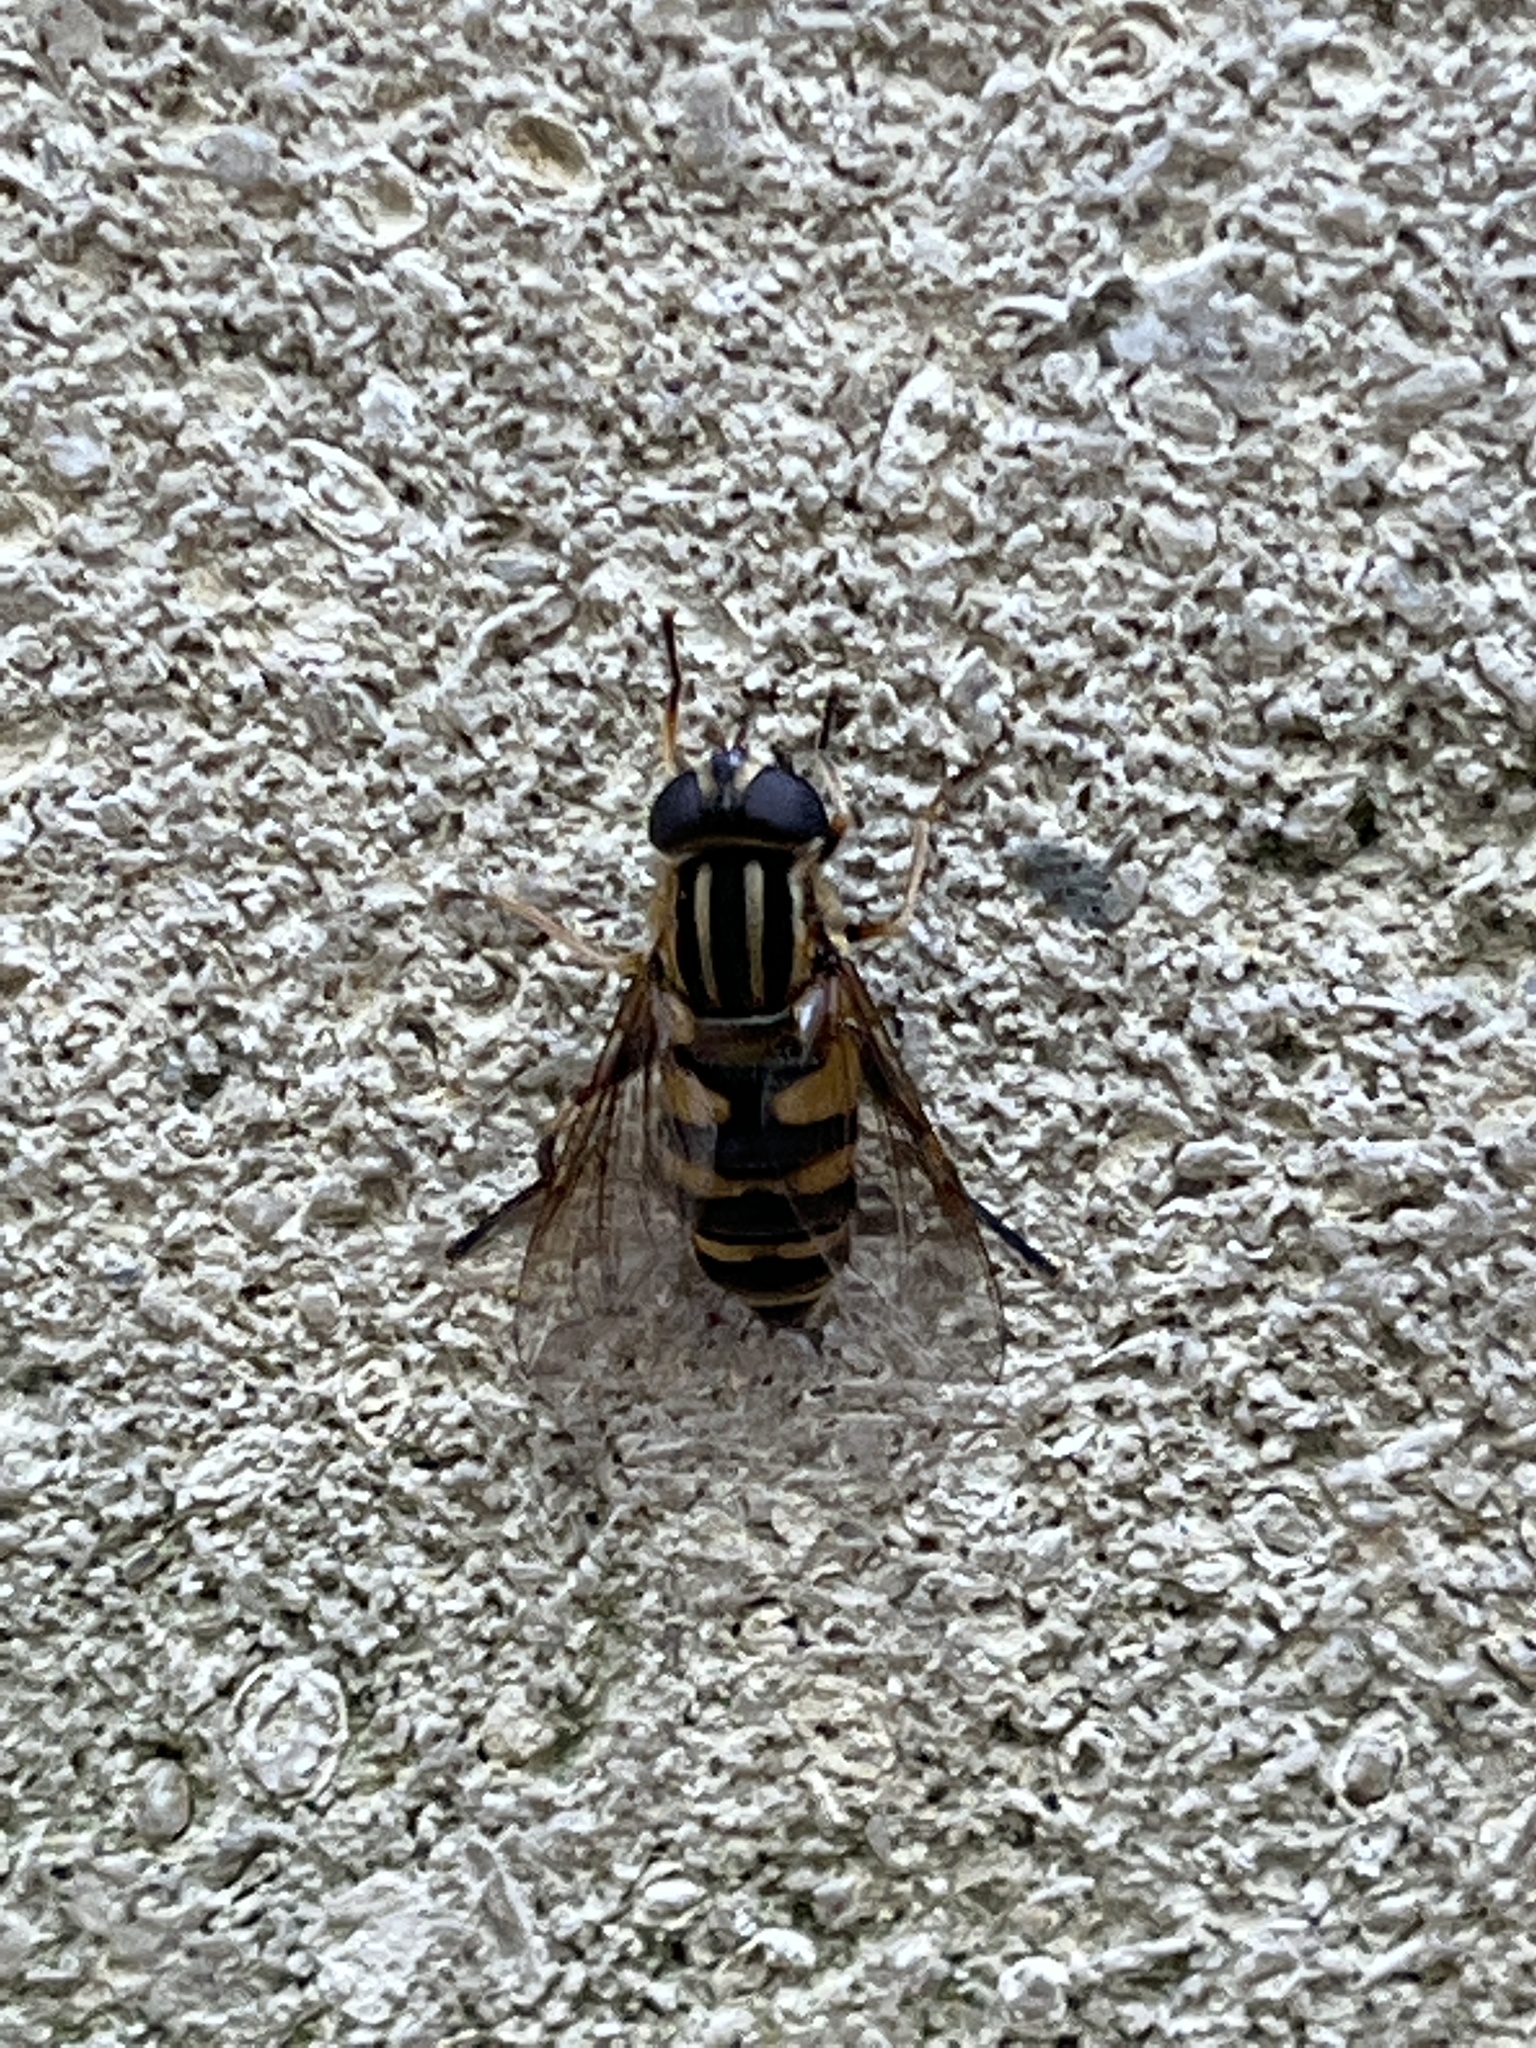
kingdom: Animalia
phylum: Arthropoda
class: Insecta
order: Diptera
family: Syrphidae
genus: Helophilus
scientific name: Helophilus fasciatus
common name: Narrow-headed marsh fly
